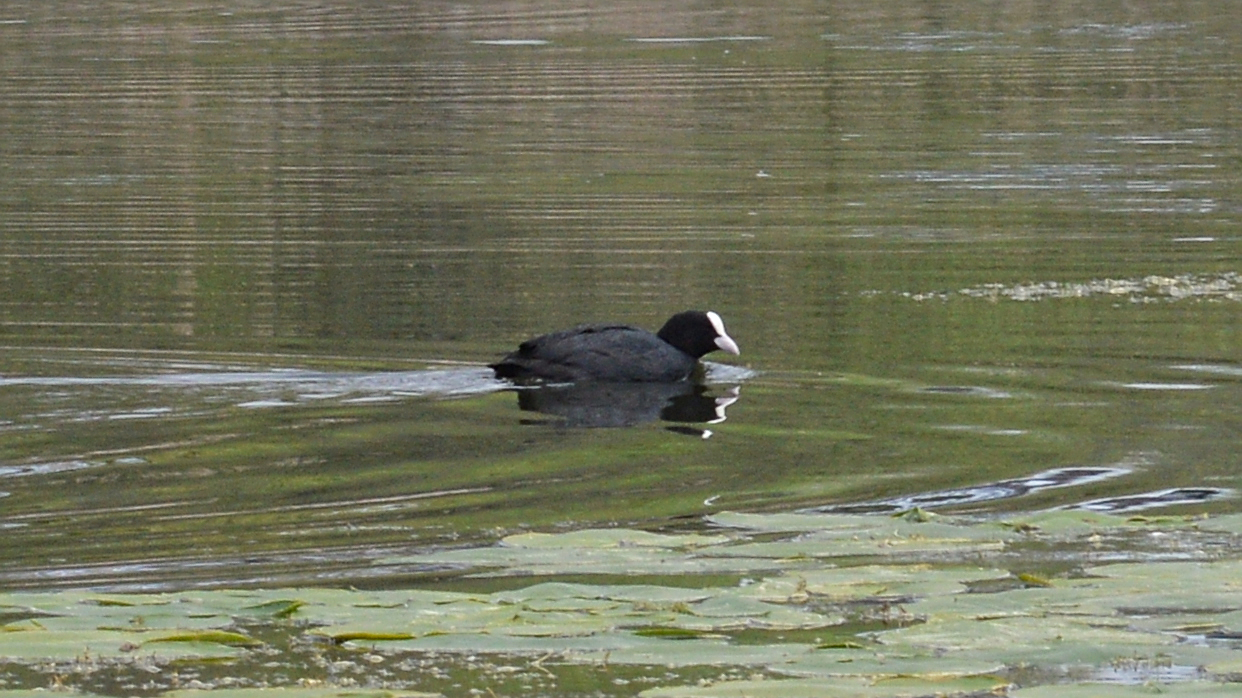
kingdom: Animalia
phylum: Chordata
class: Aves
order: Gruiformes
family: Rallidae
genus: Fulica
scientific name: Fulica atra
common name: Eurasian coot
